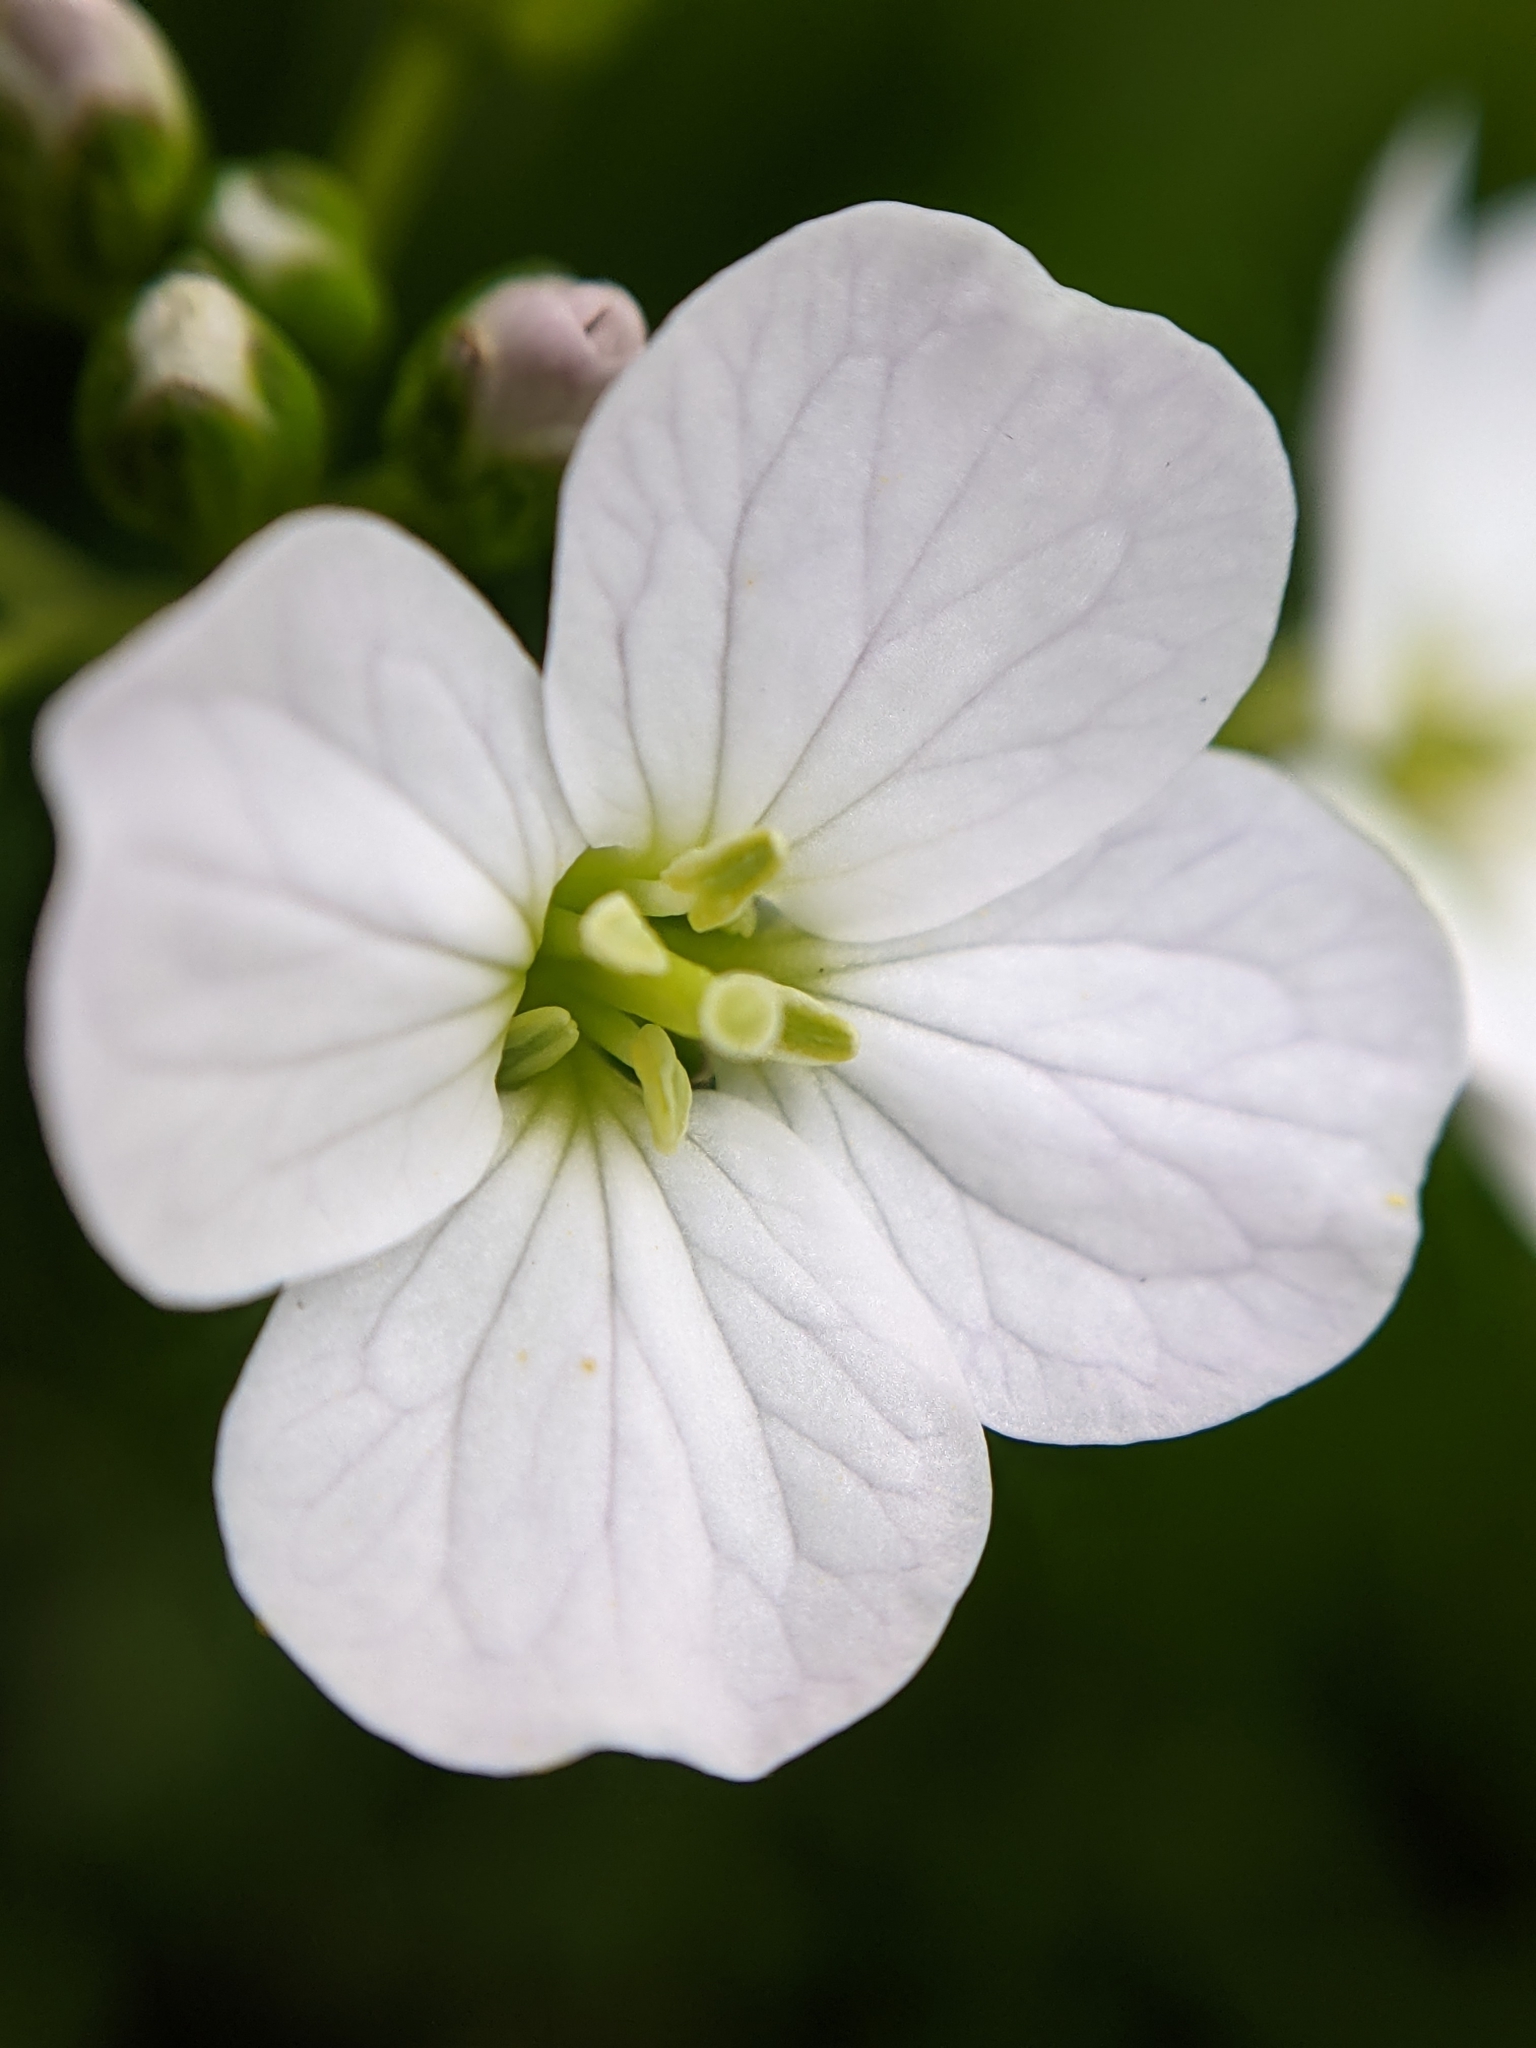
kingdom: Plantae
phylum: Tracheophyta
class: Magnoliopsida
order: Brassicales
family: Brassicaceae
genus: Cardamine
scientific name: Cardamine pratensis
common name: Cuckoo flower
